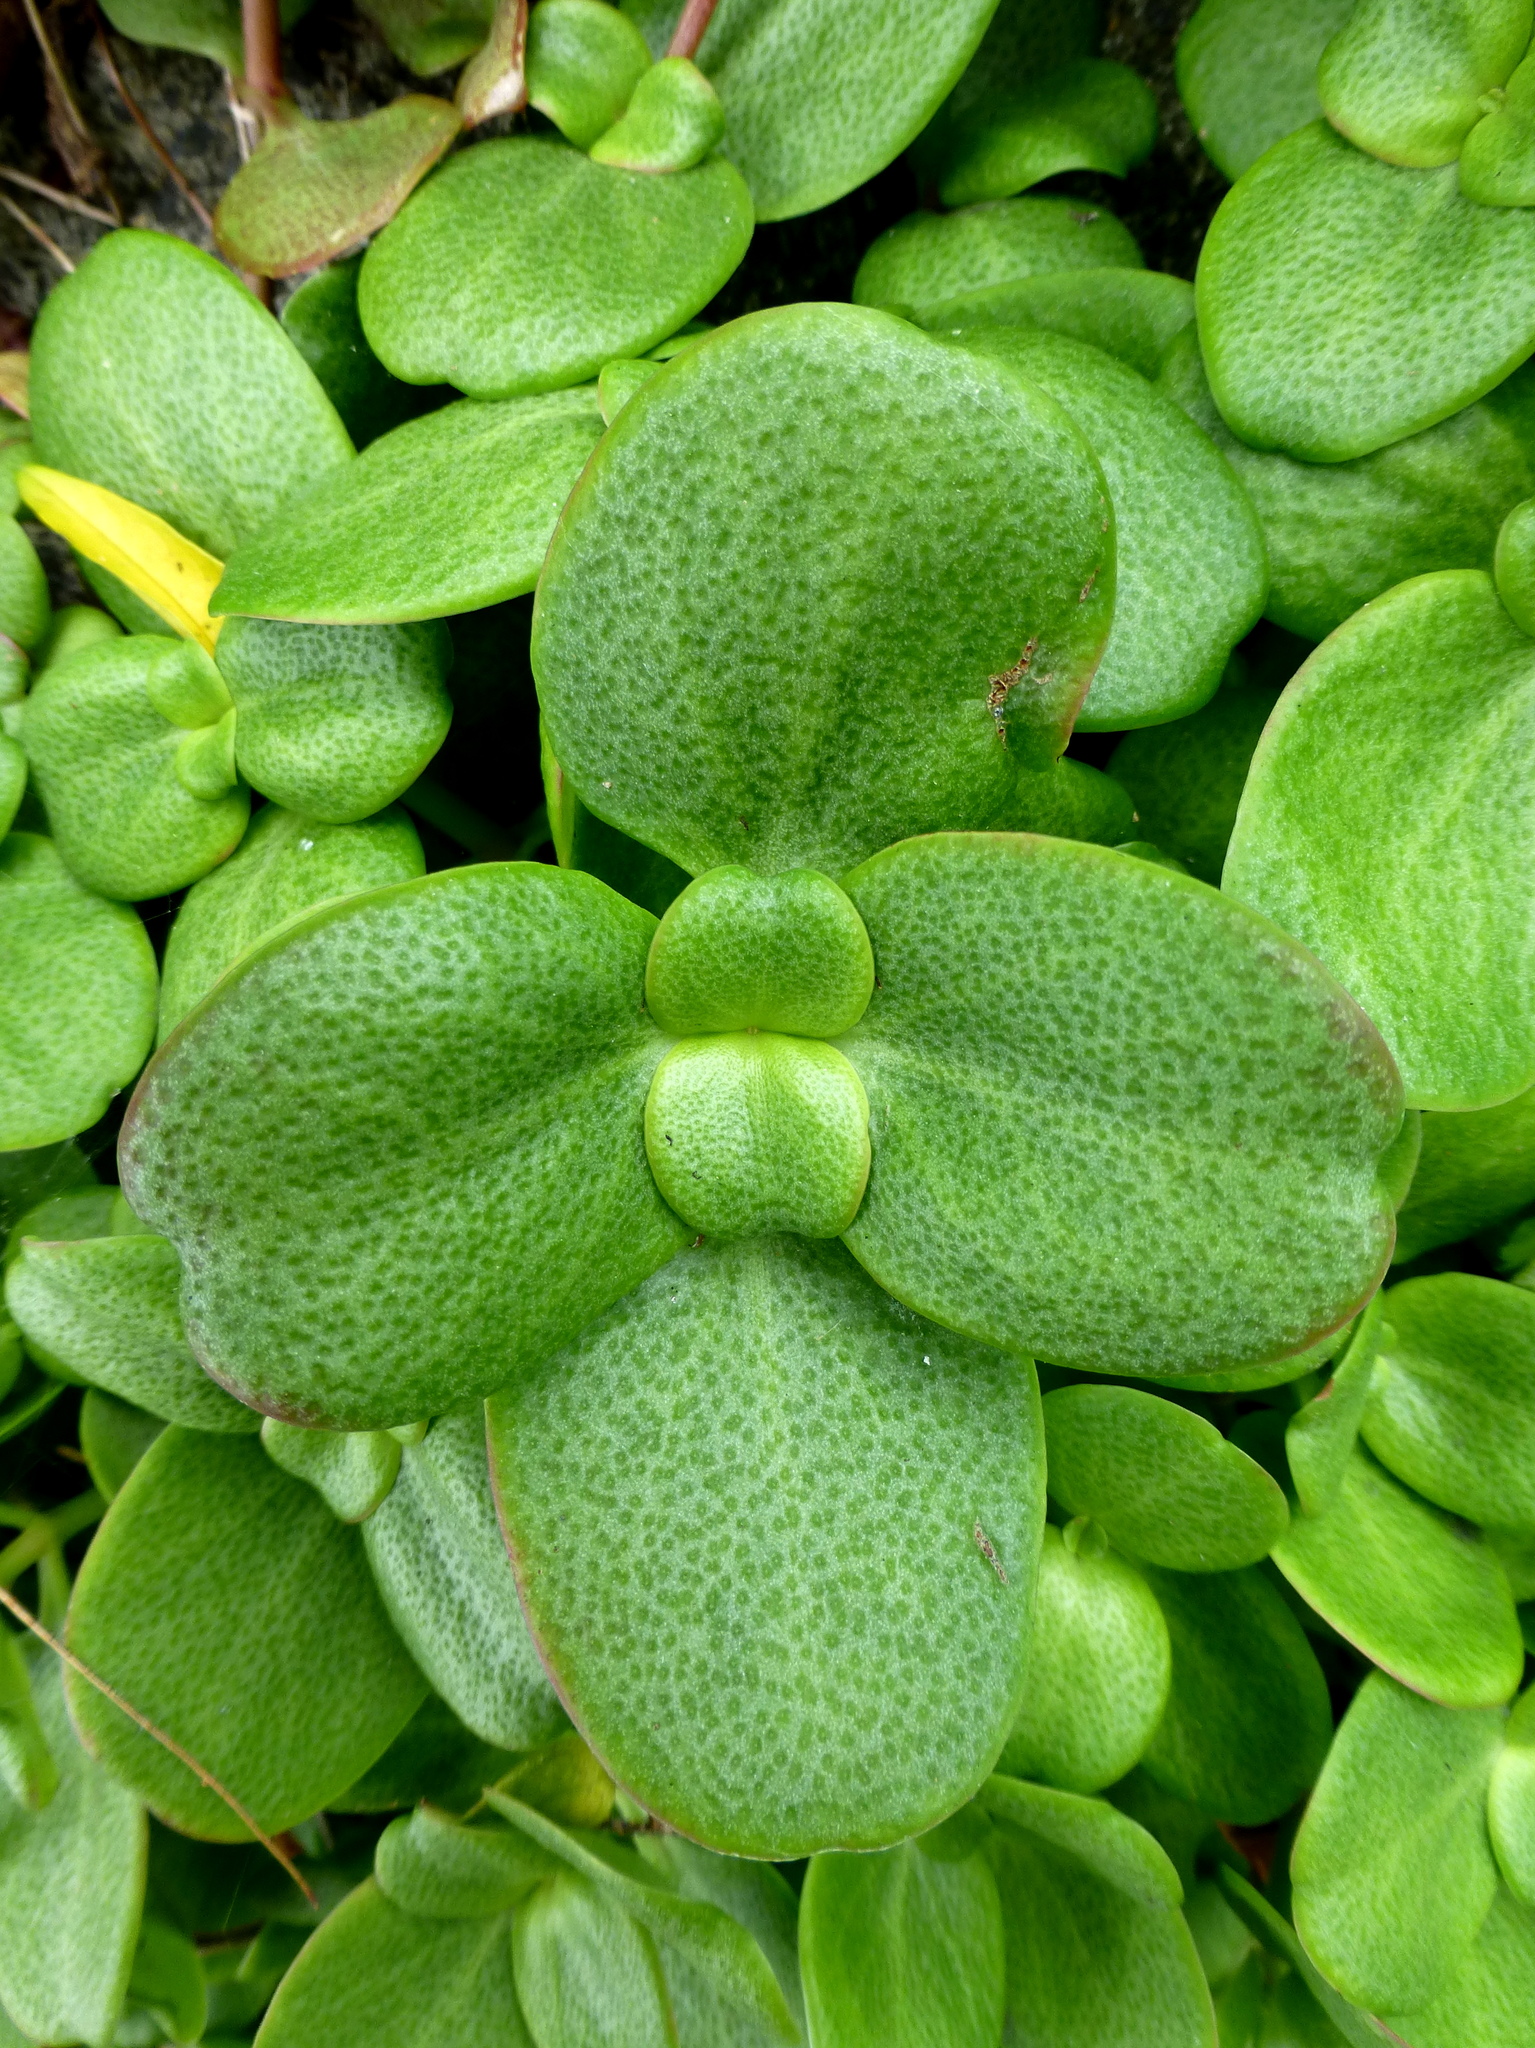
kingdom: Plantae
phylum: Tracheophyta
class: Magnoliopsida
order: Saxifragales
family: Crassulaceae
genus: Crassula
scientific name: Crassula multicava
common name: Cape province pygmyweed
